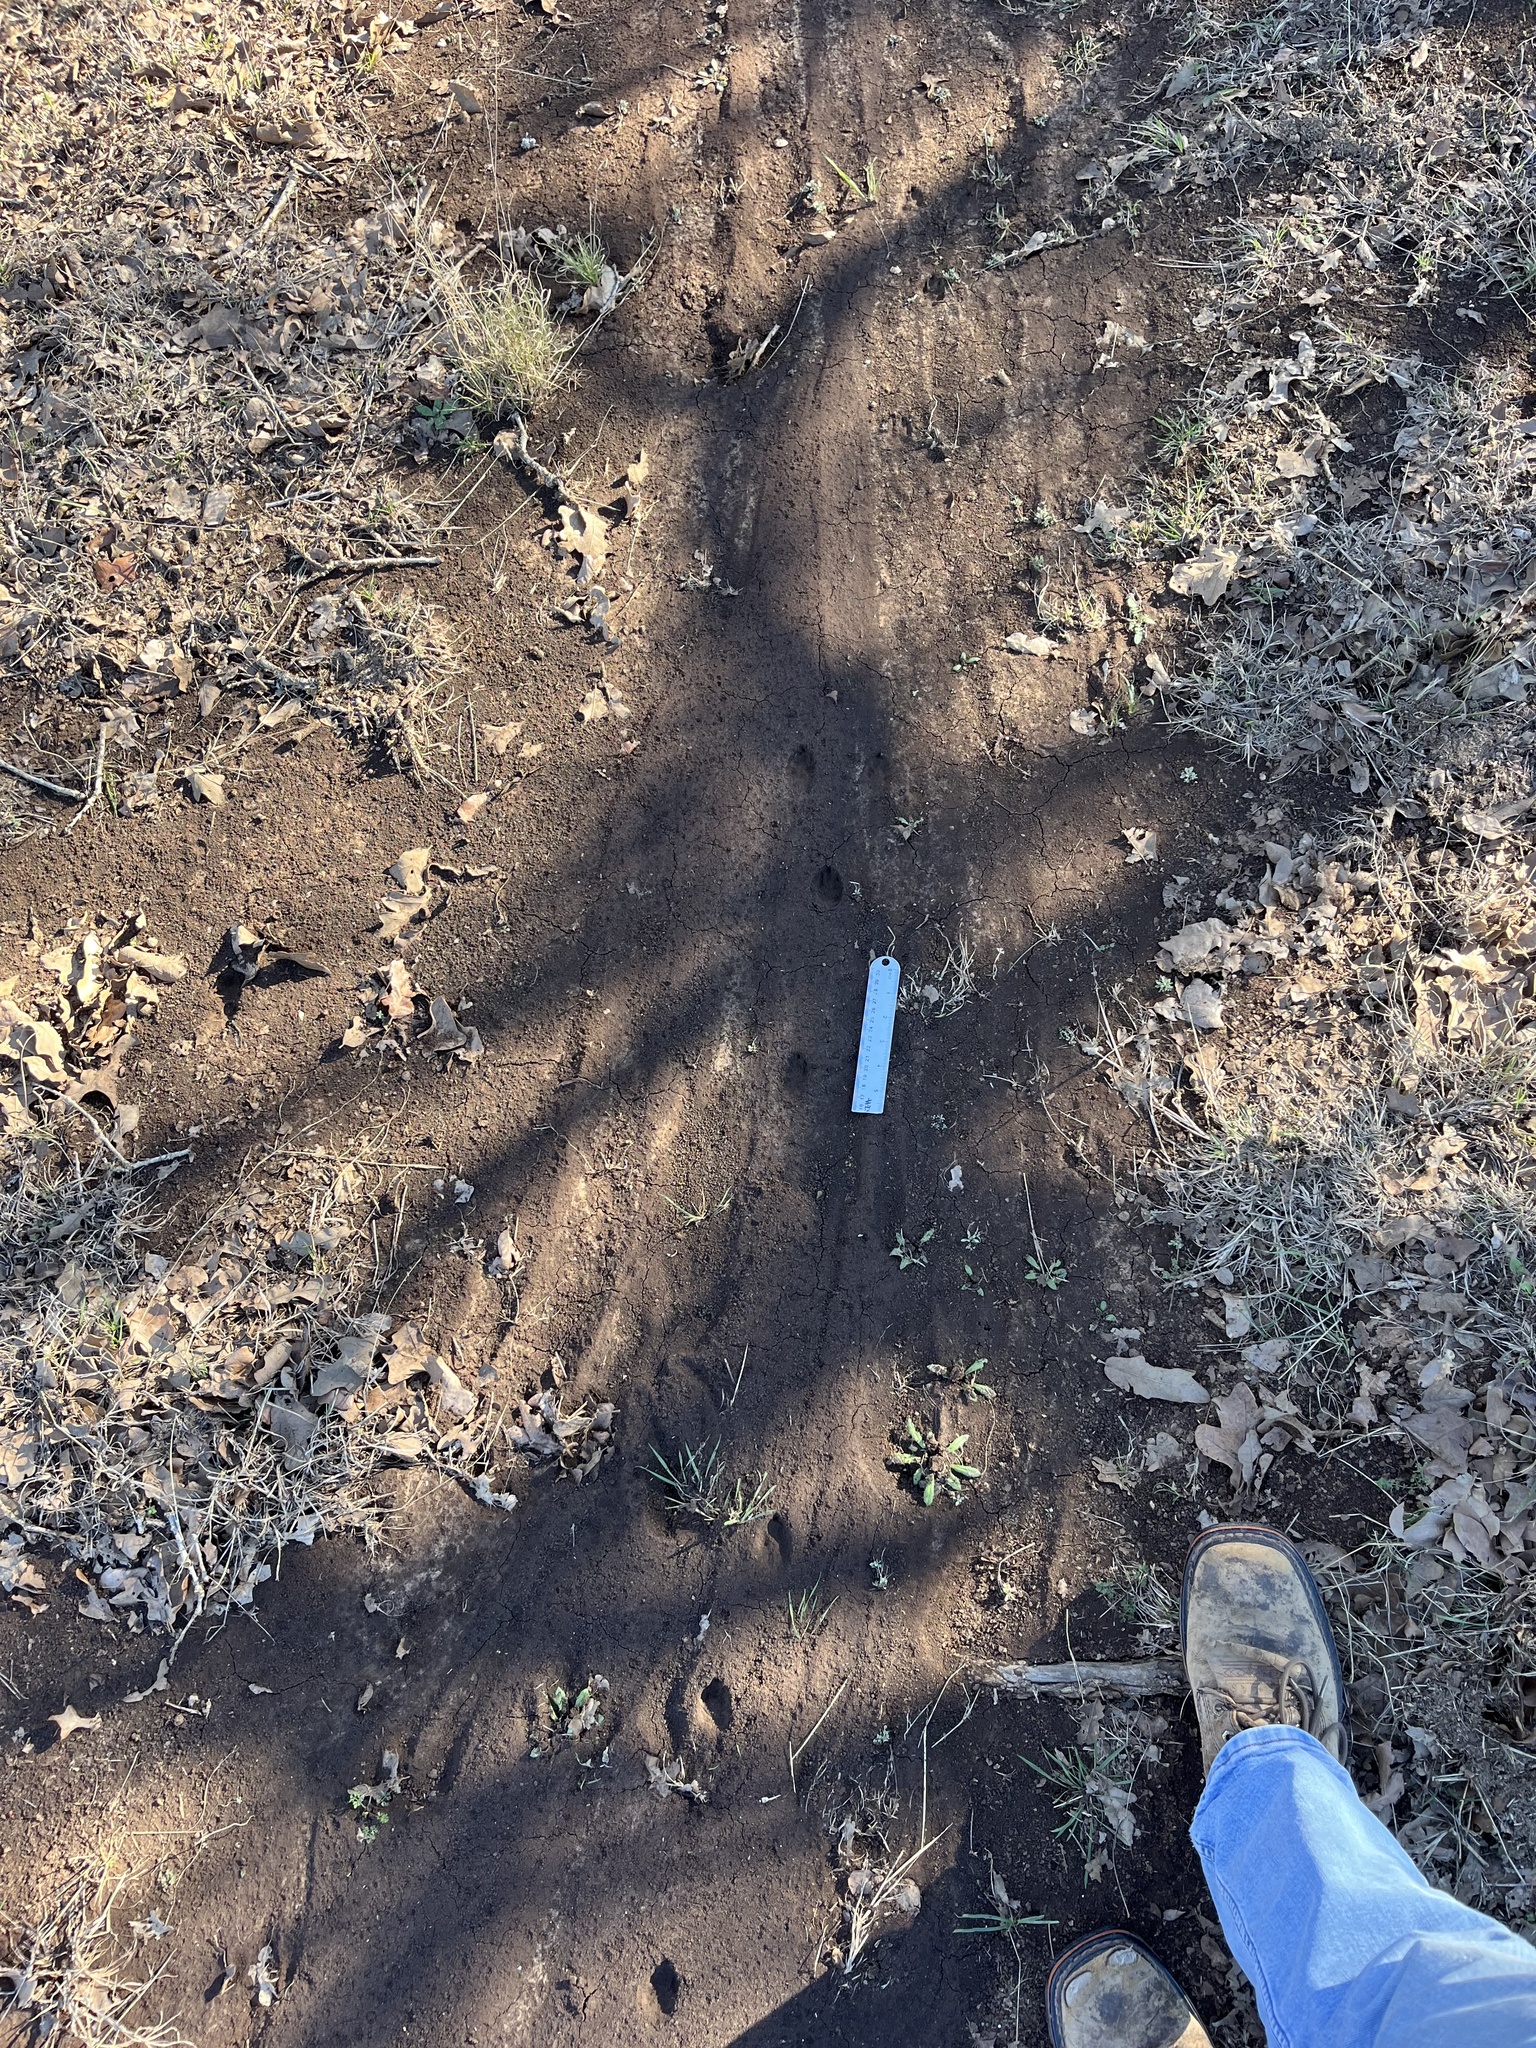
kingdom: Animalia
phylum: Chordata
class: Mammalia
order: Lagomorpha
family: Leporidae
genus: Lepus
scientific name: Lepus californicus
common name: Black-tailed jackrabbit
